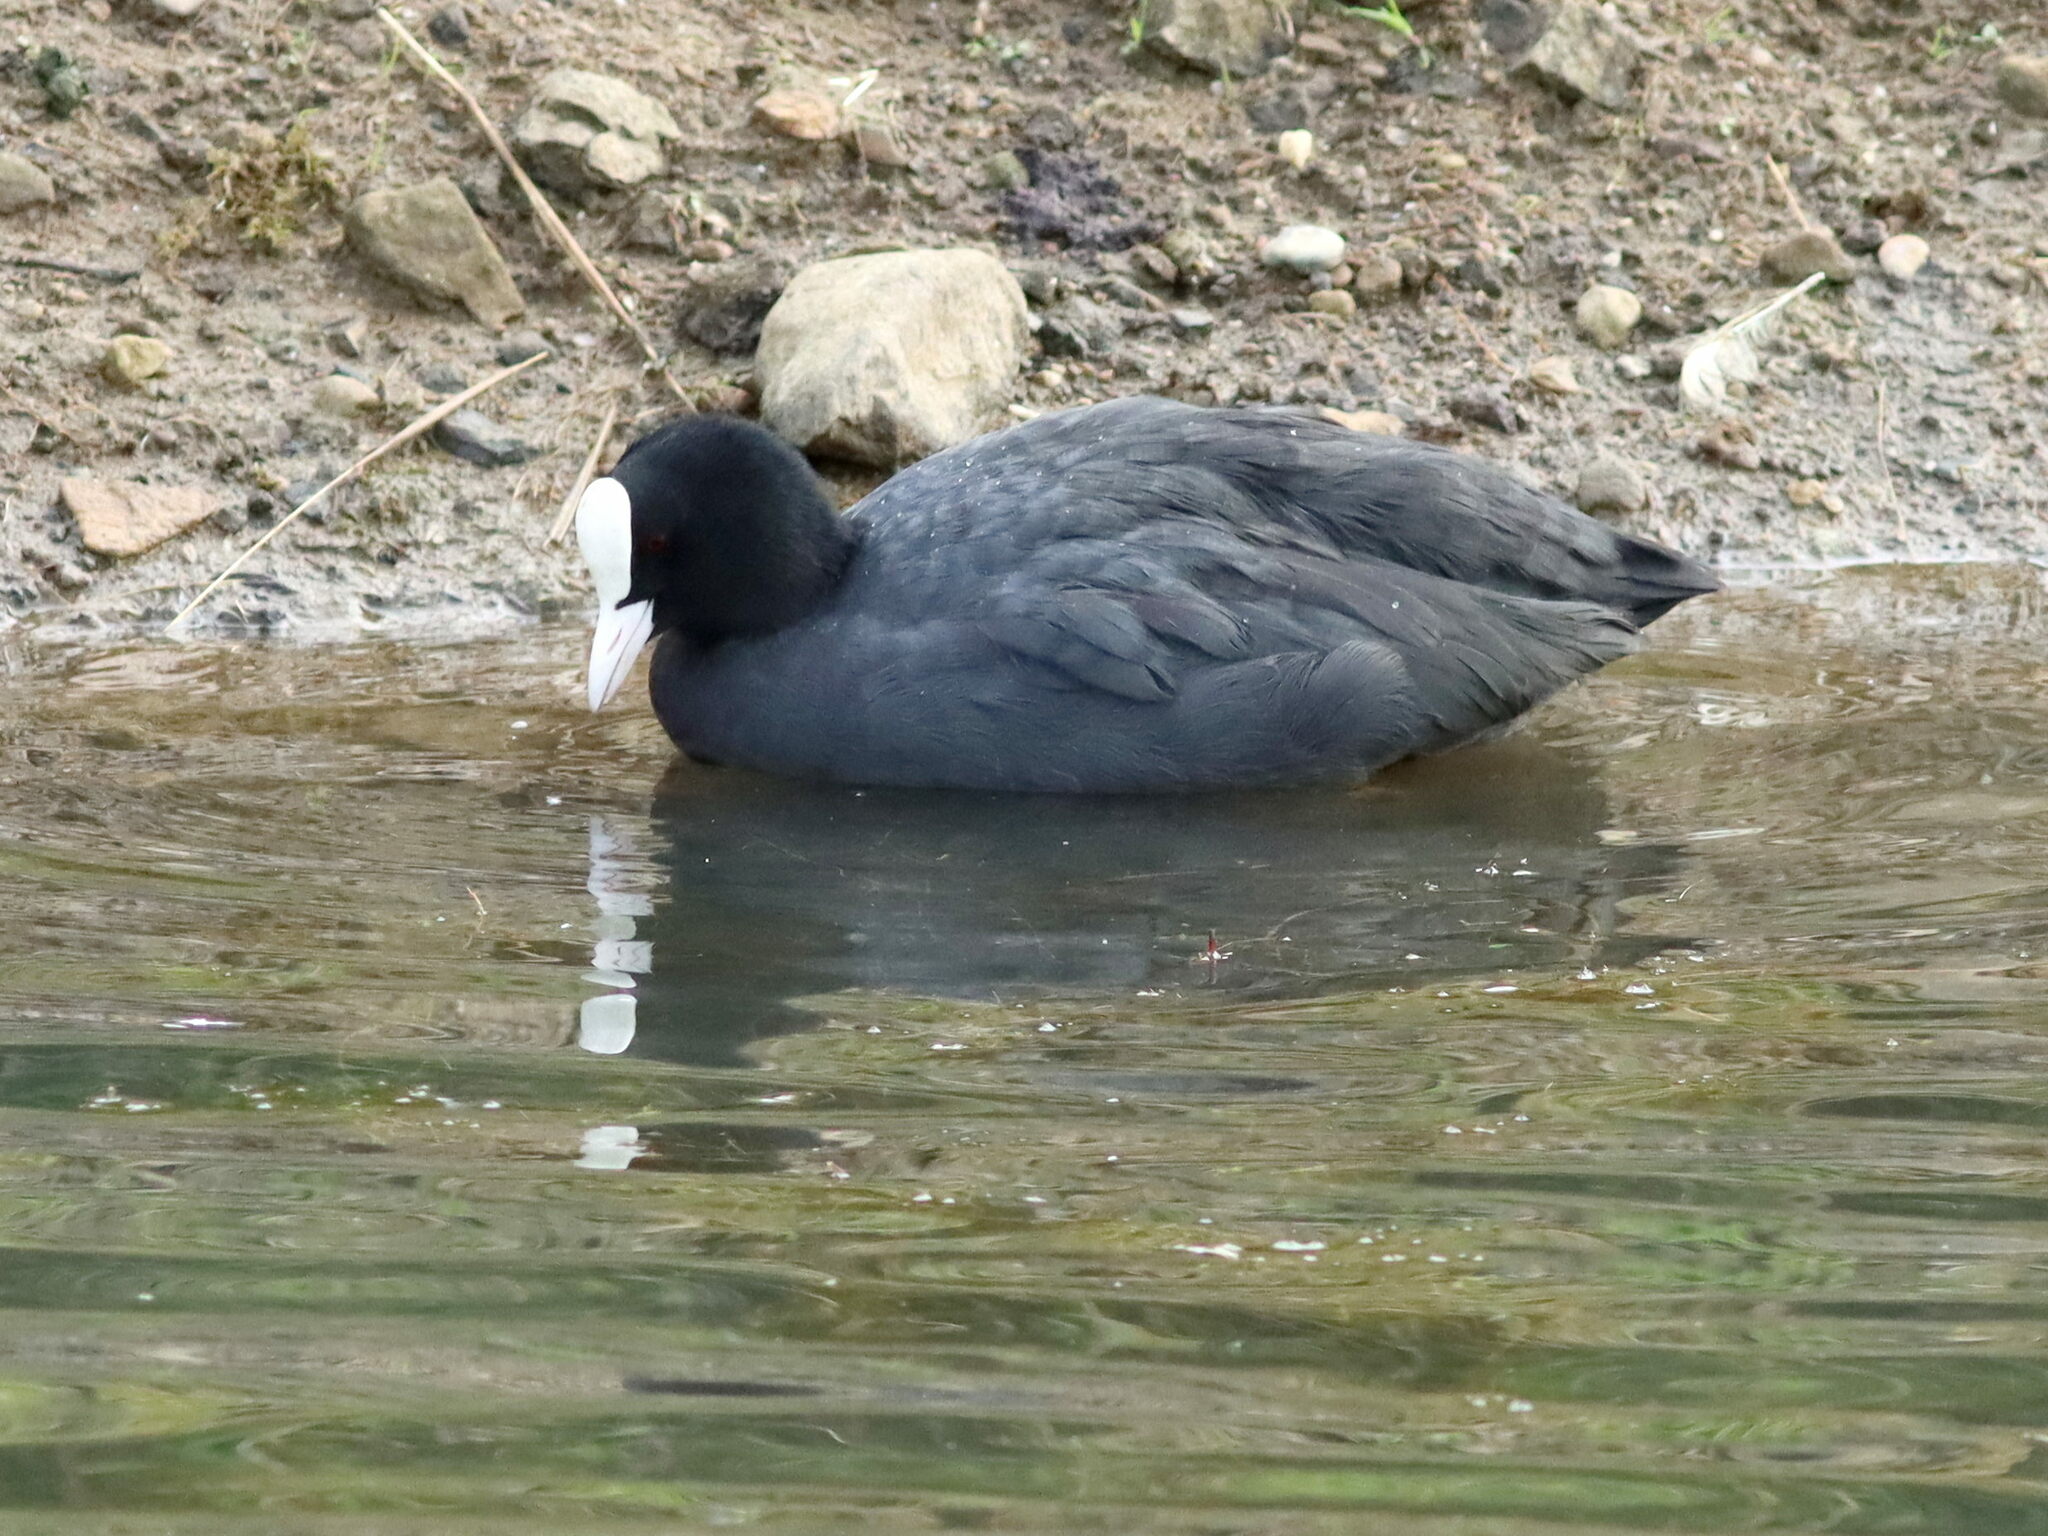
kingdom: Animalia
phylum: Chordata
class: Aves
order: Gruiformes
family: Rallidae
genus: Fulica
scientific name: Fulica atra
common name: Eurasian coot
